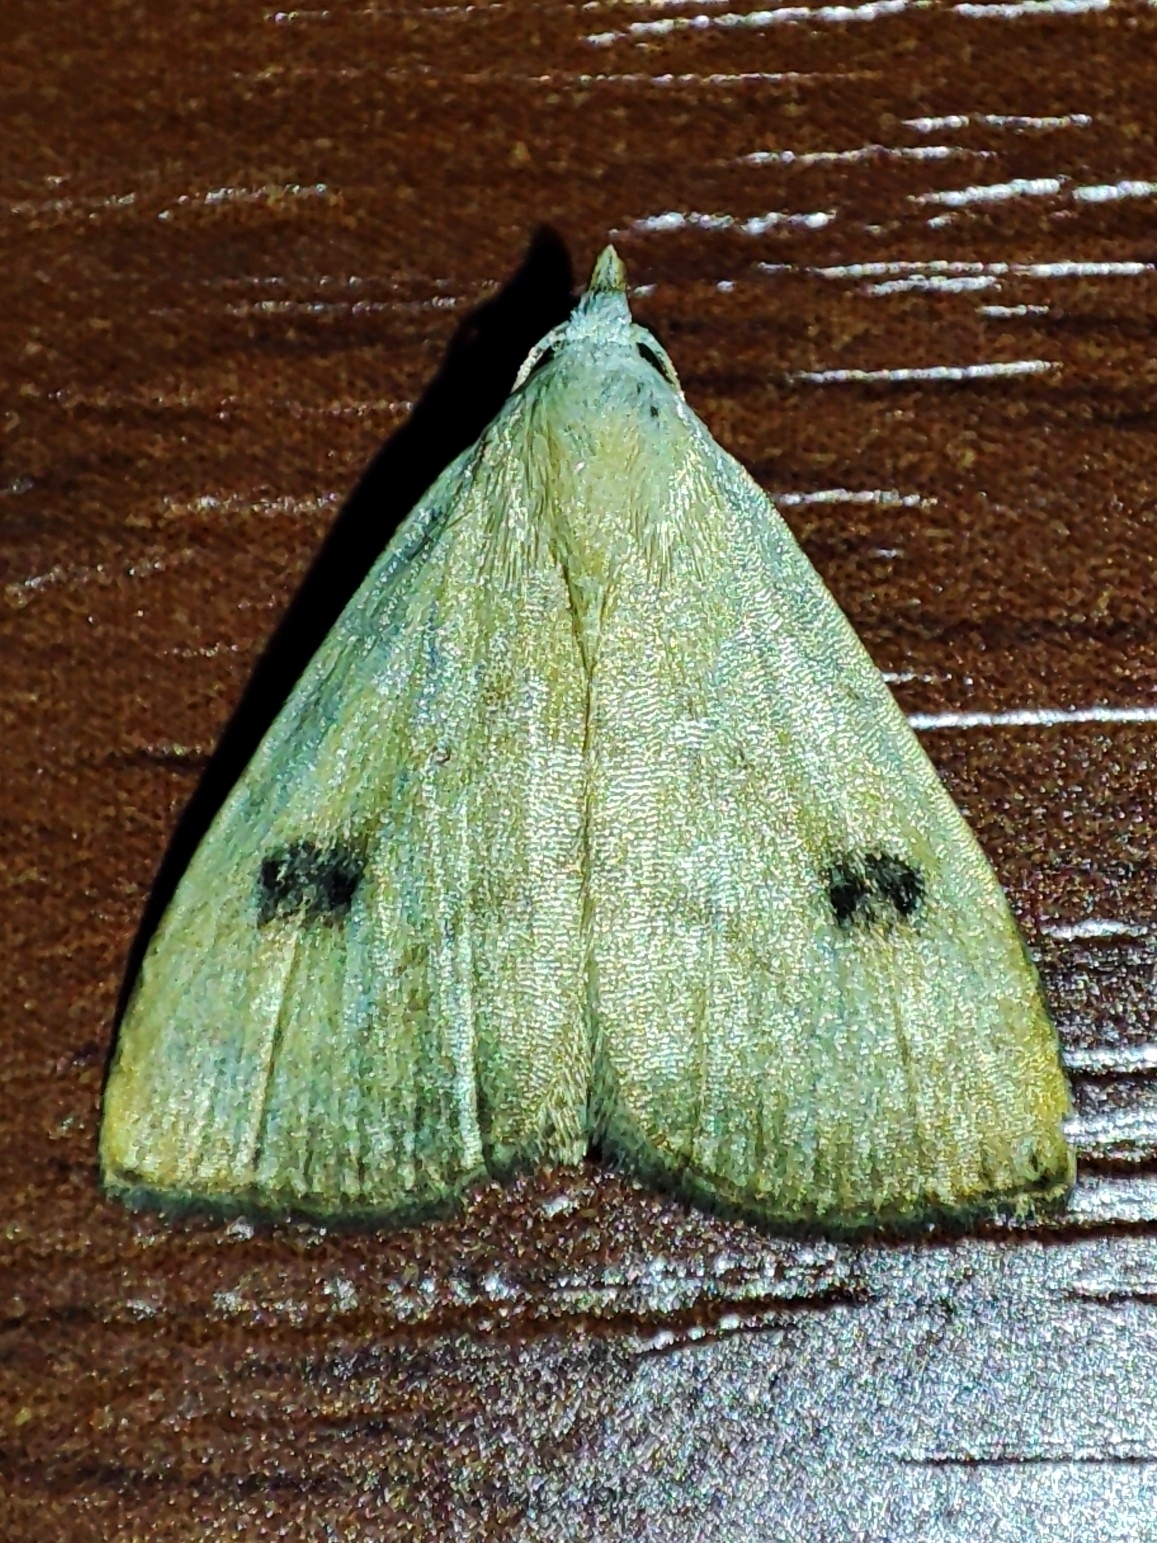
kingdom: Animalia
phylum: Arthropoda
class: Insecta
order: Lepidoptera
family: Erebidae
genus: Rivula
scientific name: Rivula sericealis
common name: Straw dot
